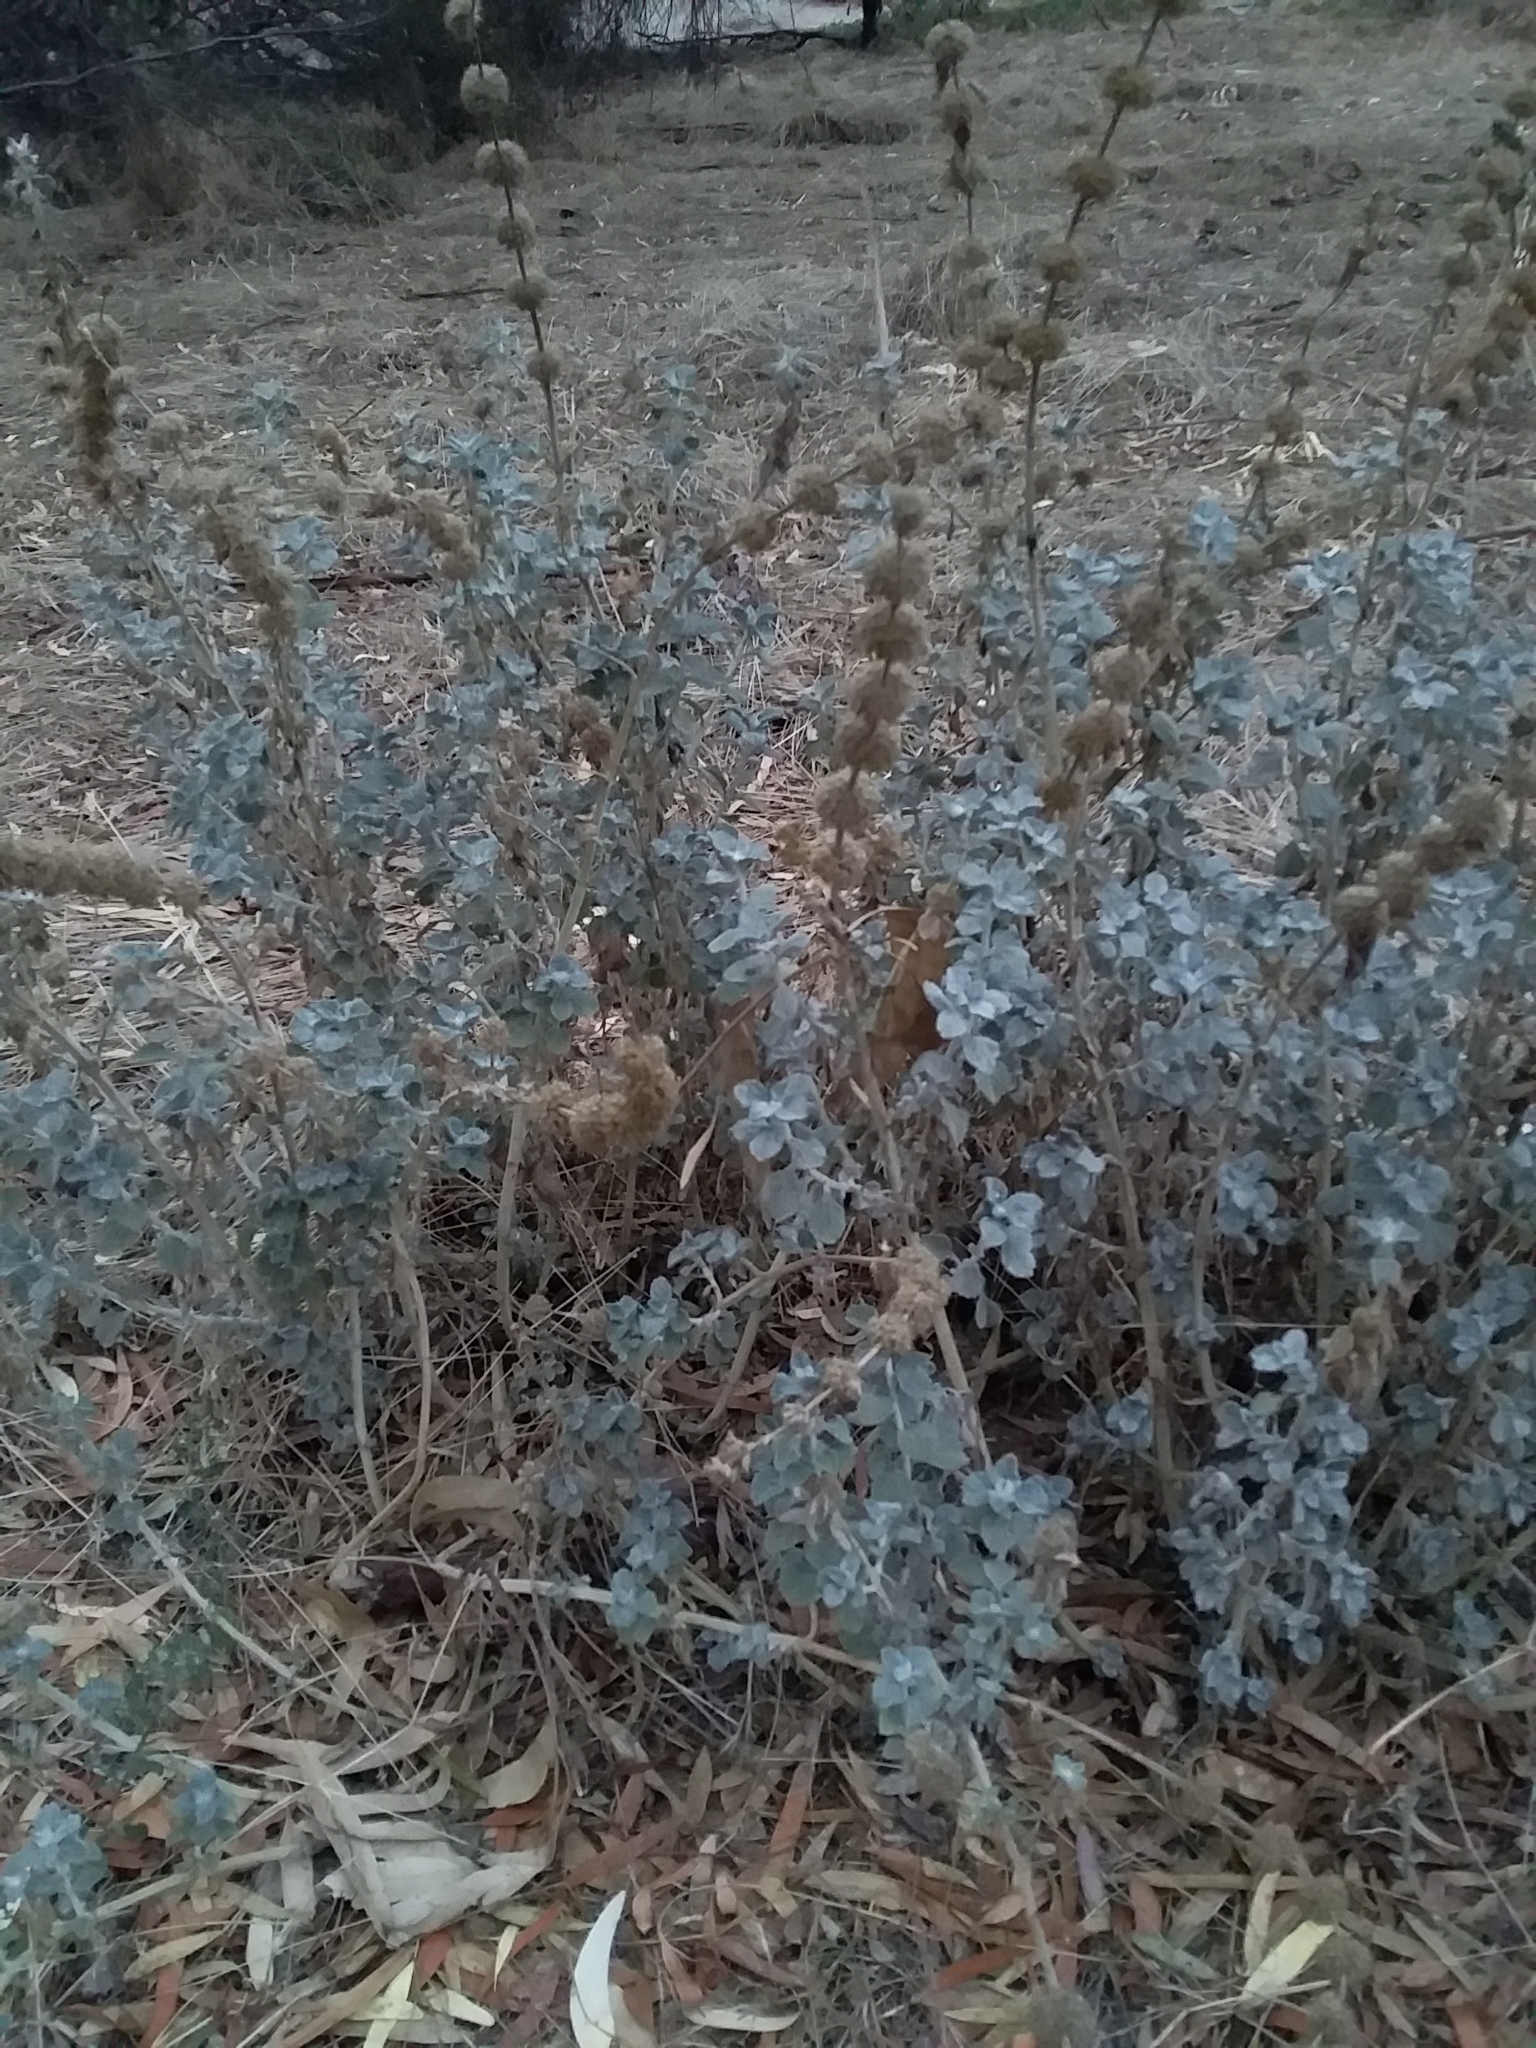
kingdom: Plantae
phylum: Tracheophyta
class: Magnoliopsida
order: Lamiales
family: Lamiaceae
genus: Marrubium
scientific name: Marrubium vulgare
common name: Horehound
